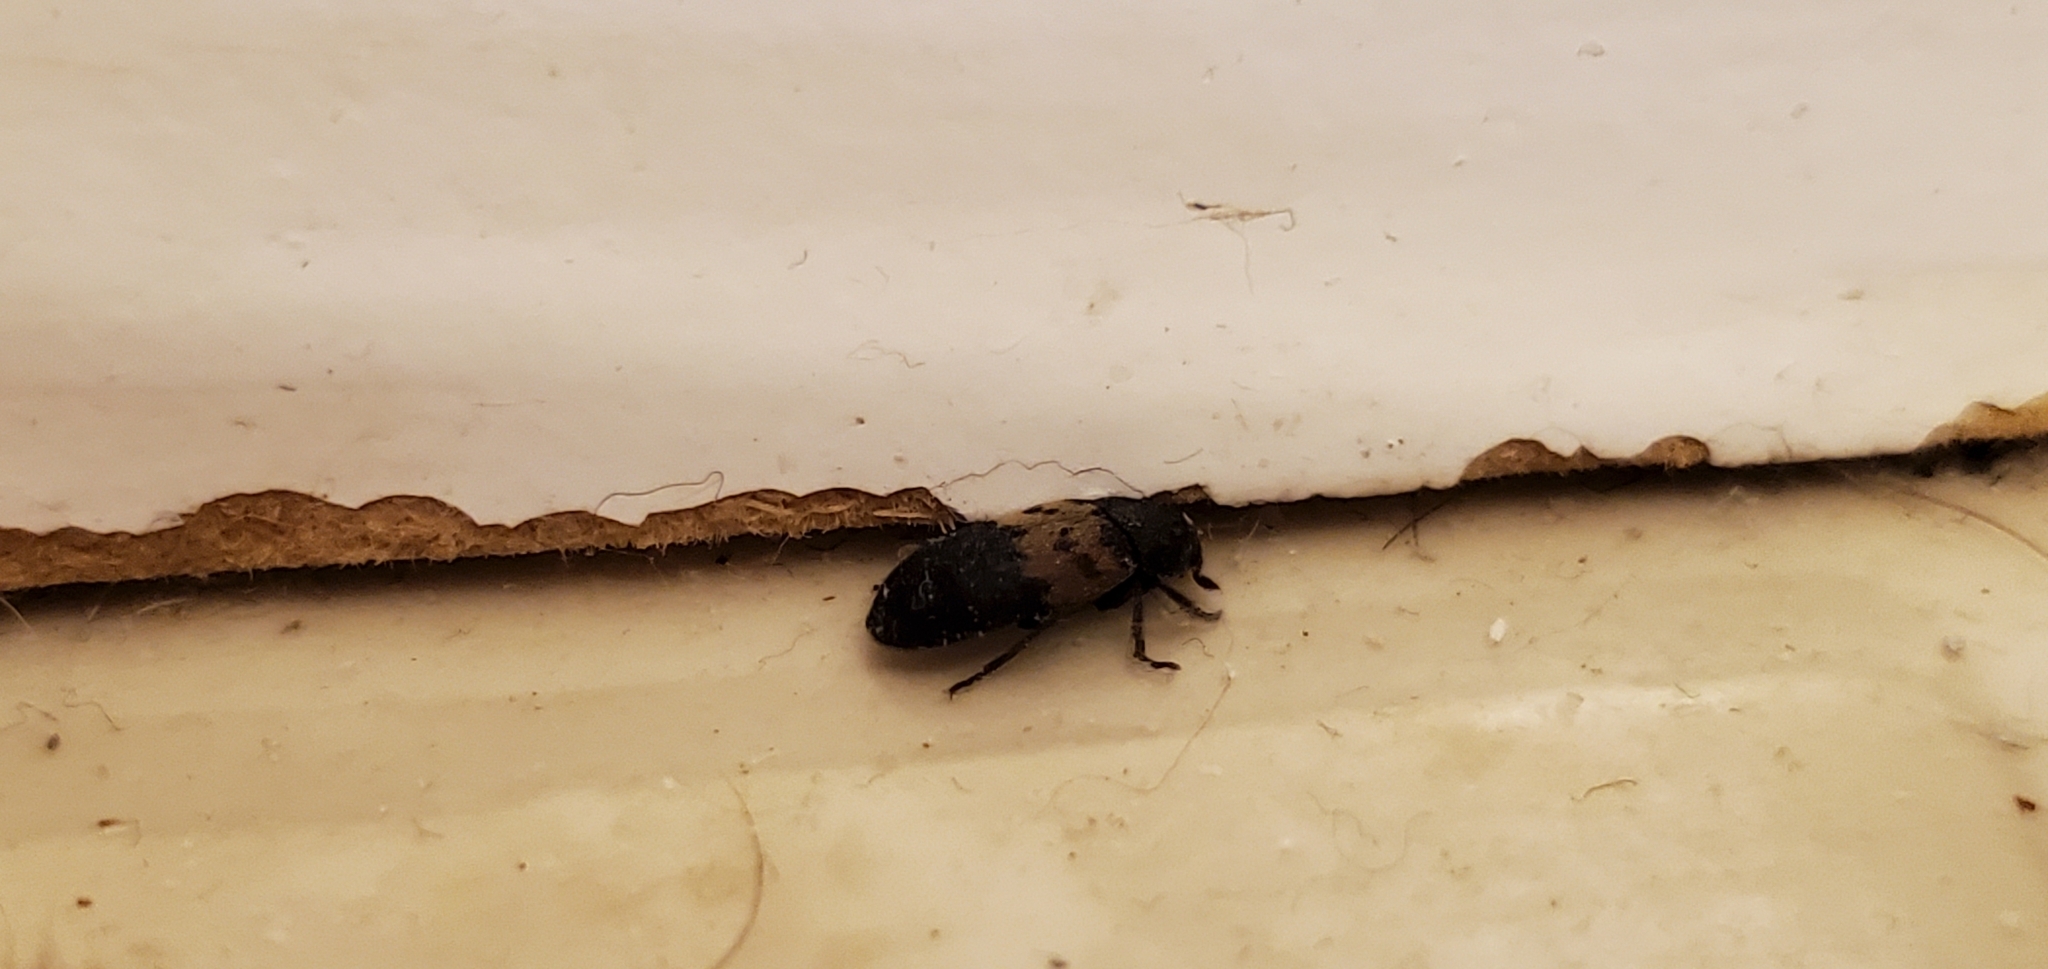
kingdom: Animalia
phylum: Arthropoda
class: Insecta
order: Coleoptera
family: Dermestidae
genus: Dermestes
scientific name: Dermestes lardarius
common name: Larder beetle
